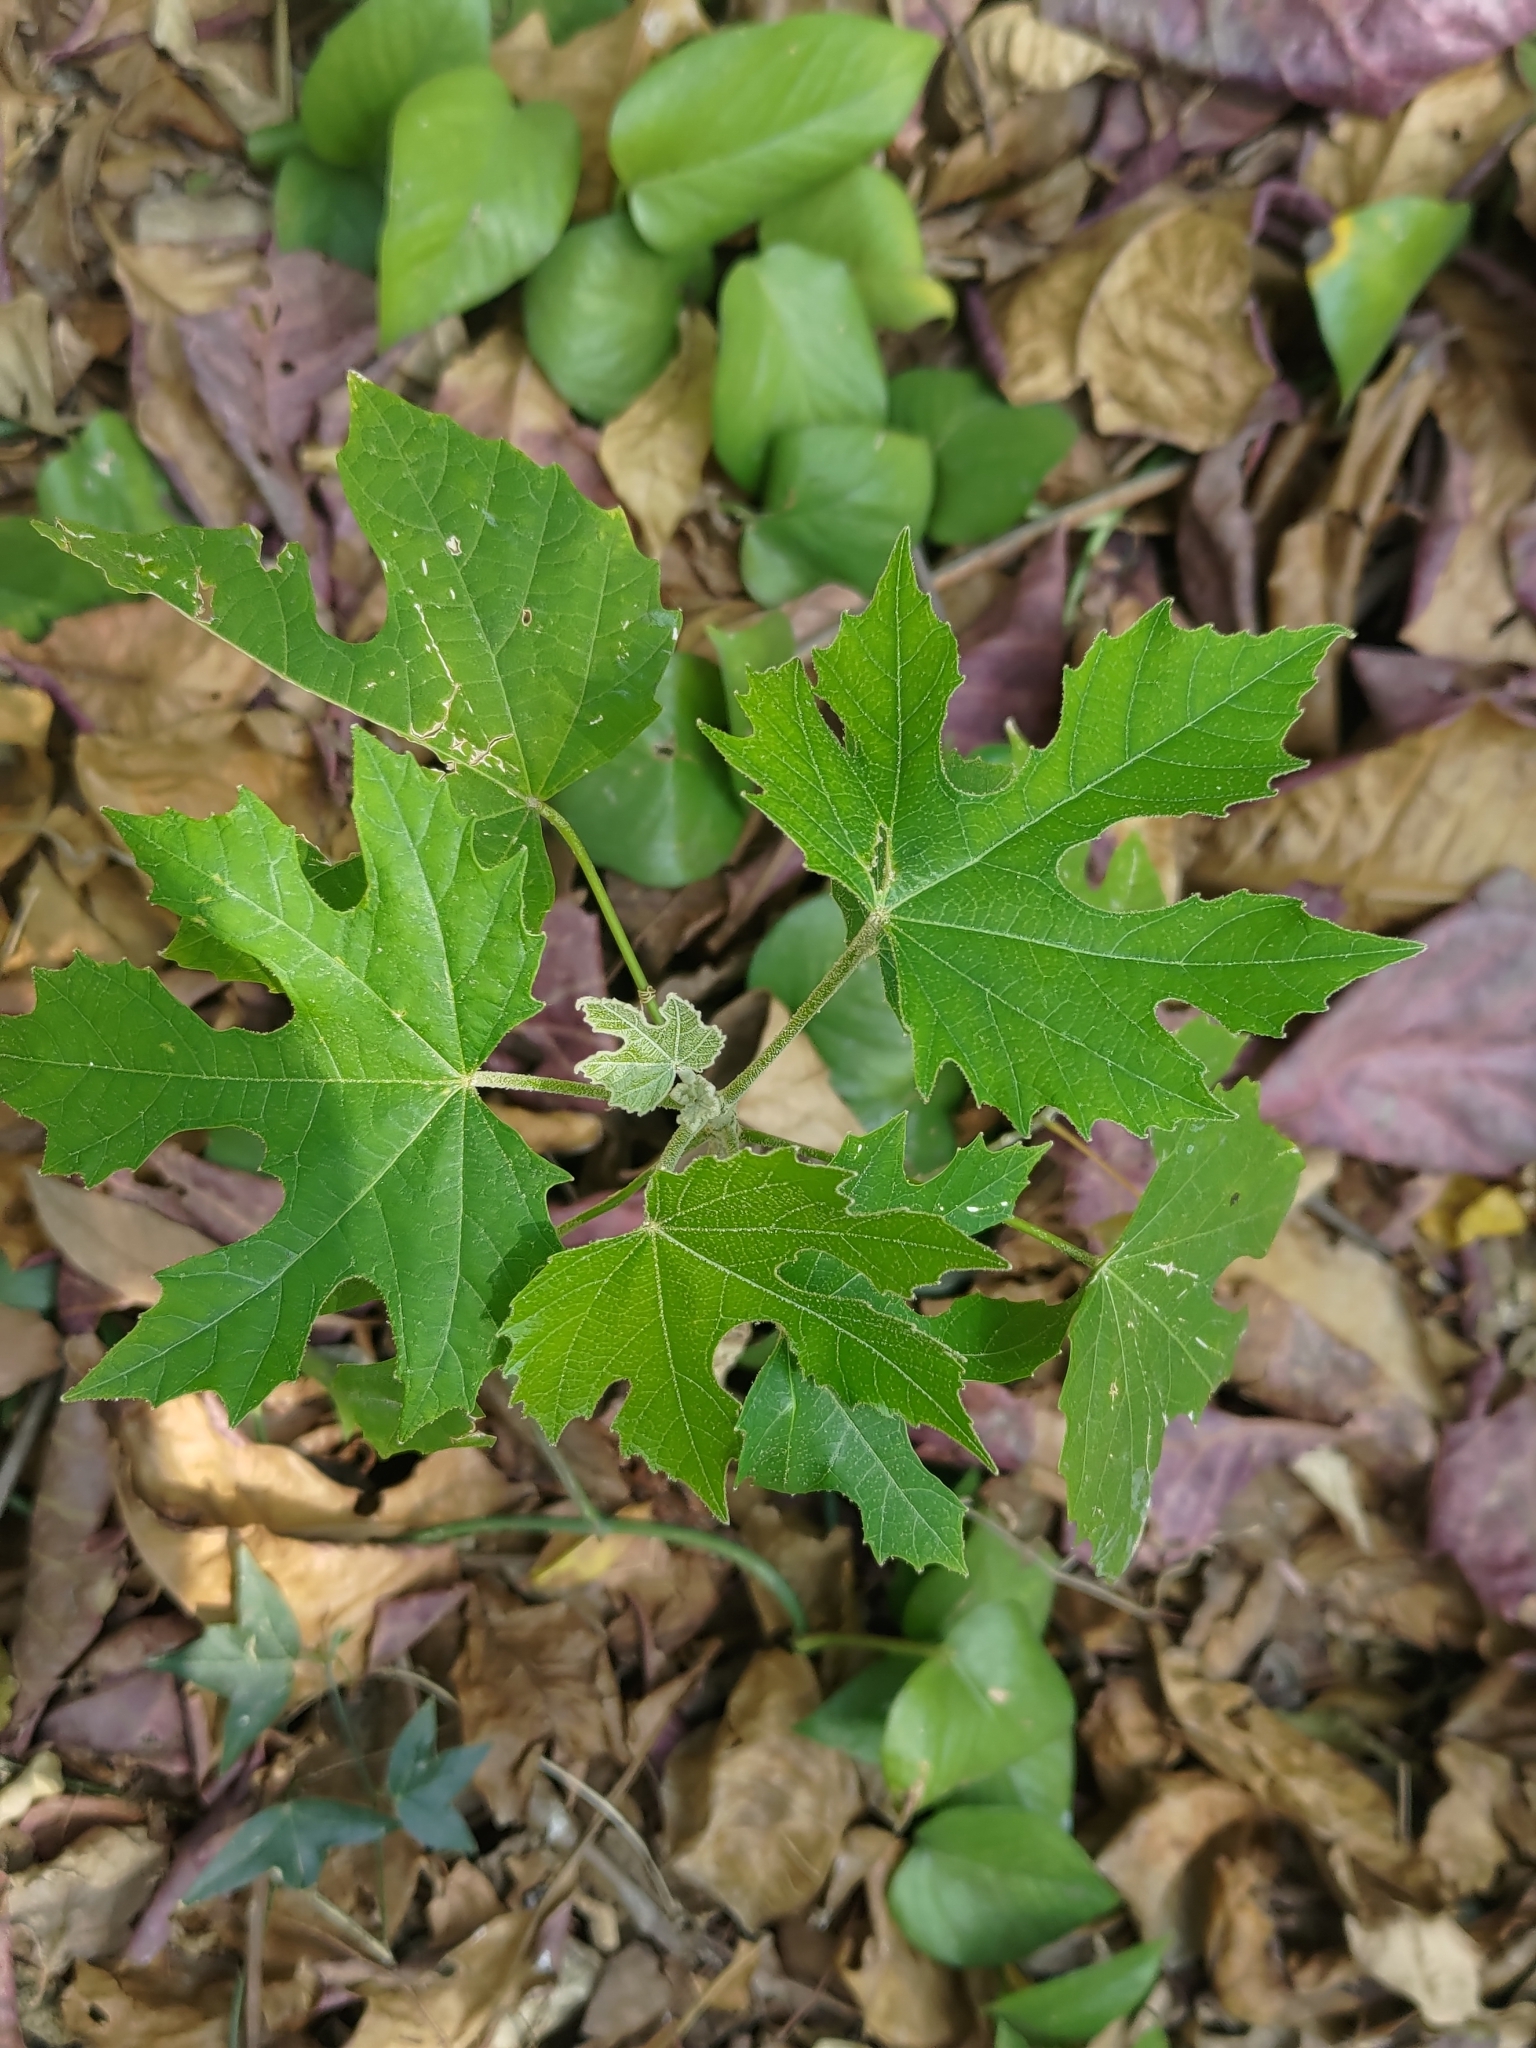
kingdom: Plantae
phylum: Tracheophyta
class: Magnoliopsida
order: Malpighiales
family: Euphorbiaceae
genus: Melanolepis
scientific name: Melanolepis multiglandulosa
